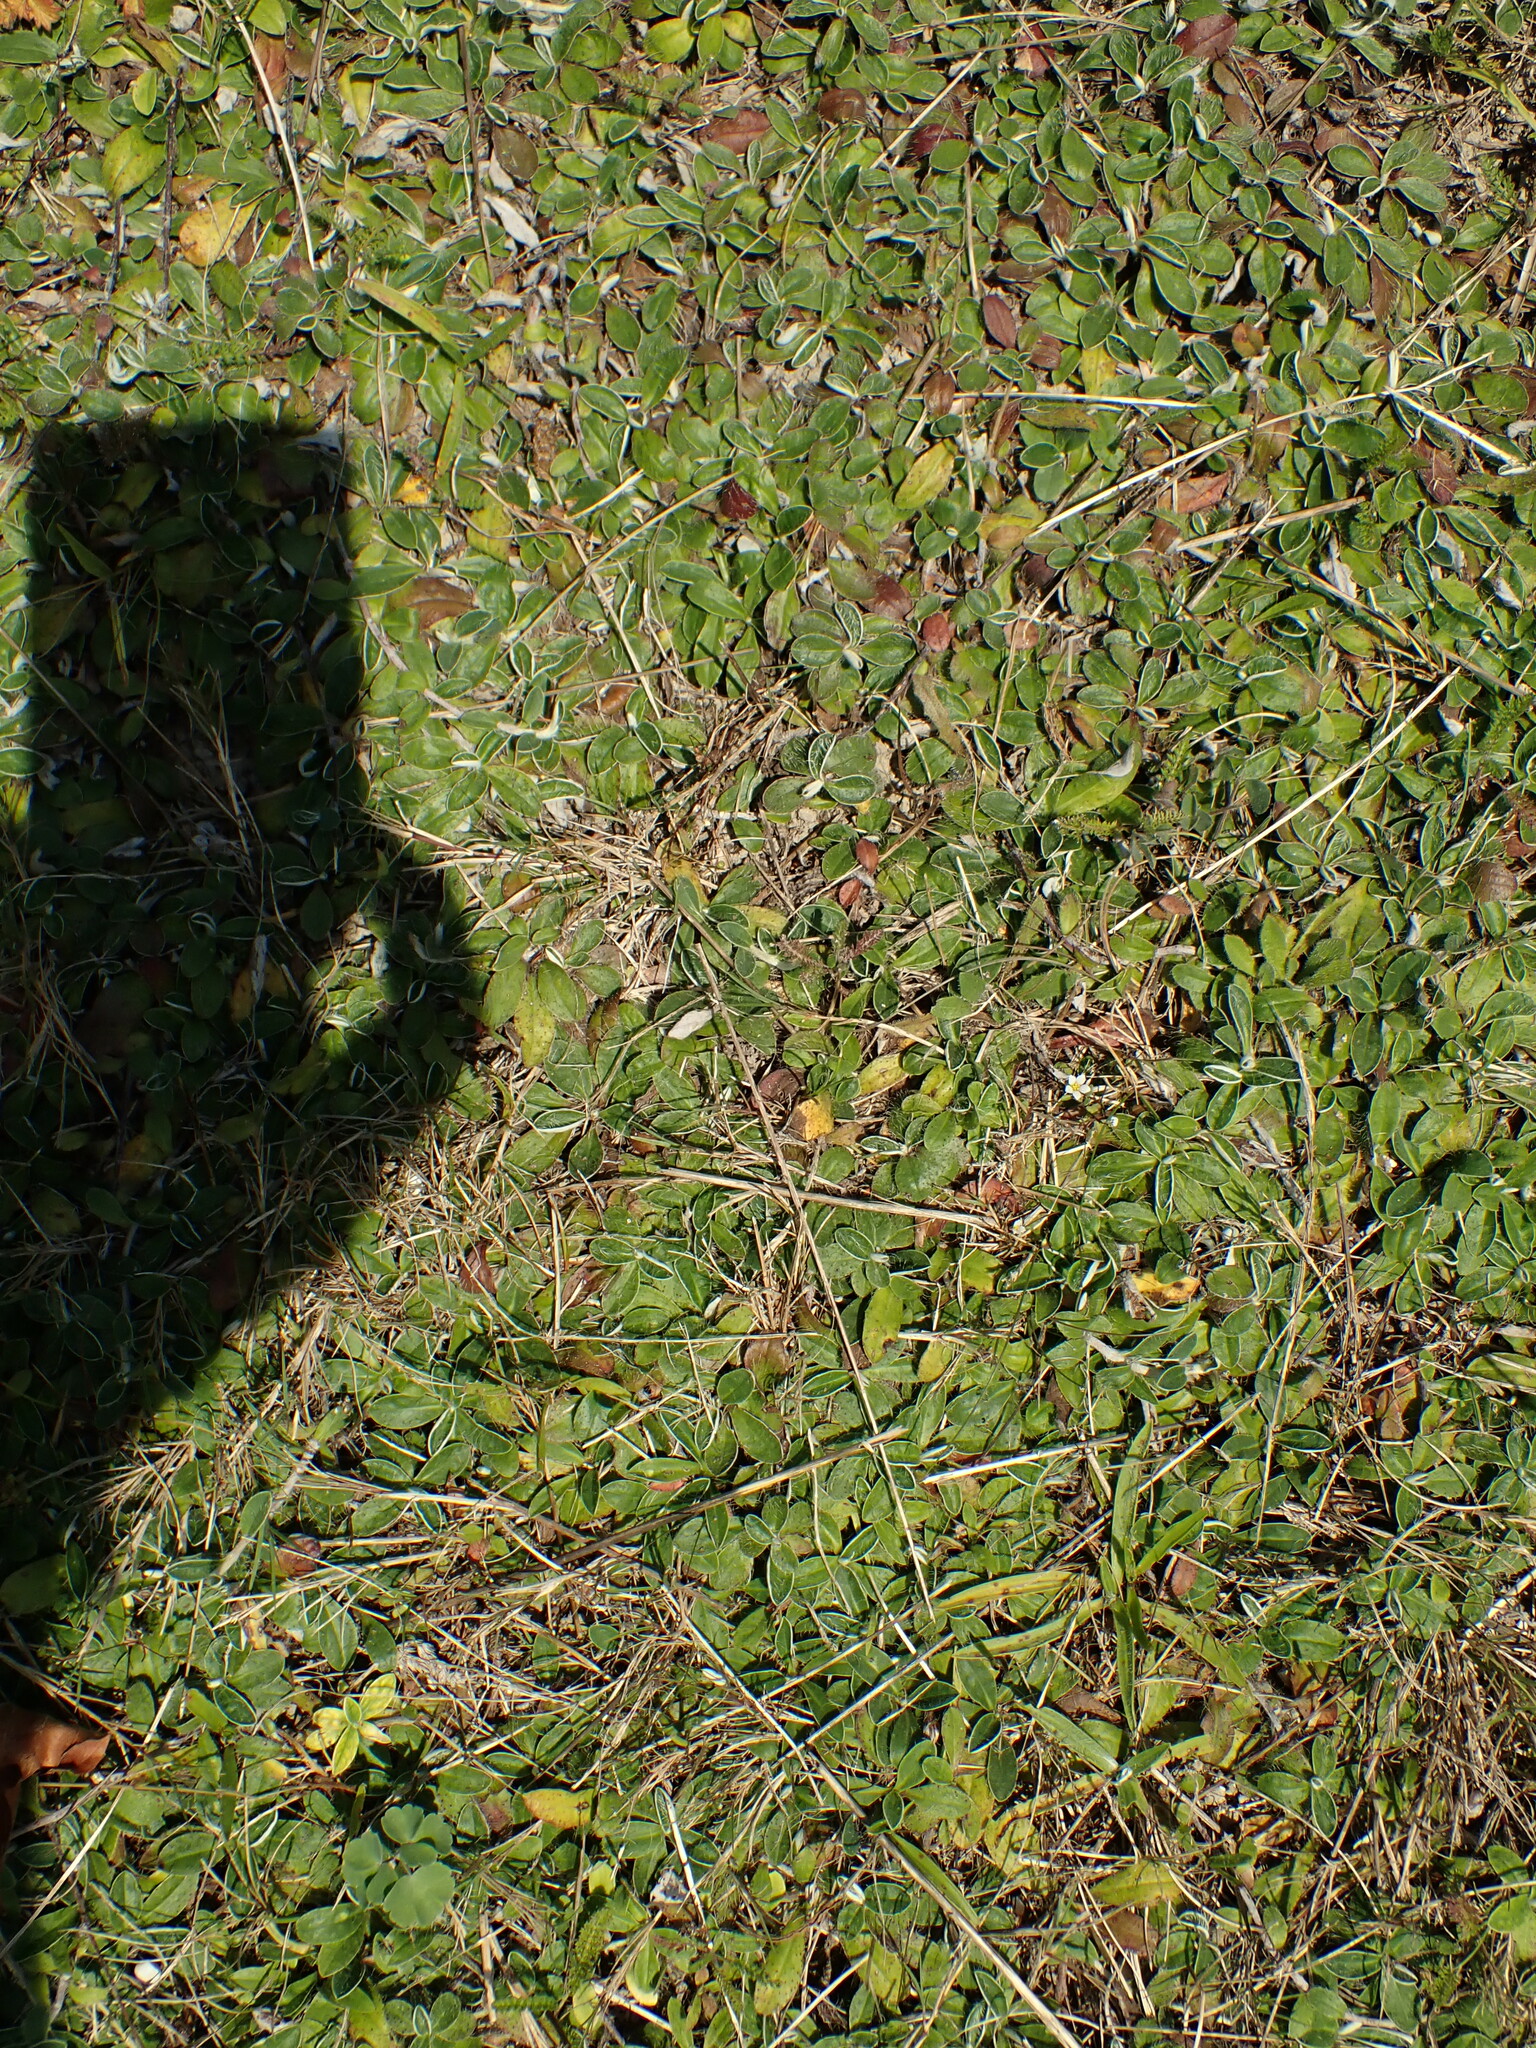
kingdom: Plantae
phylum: Tracheophyta
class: Magnoliopsida
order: Asterales
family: Asteraceae
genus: Pilosella
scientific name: Pilosella officinarum
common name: Mouse-ear hawkweed
